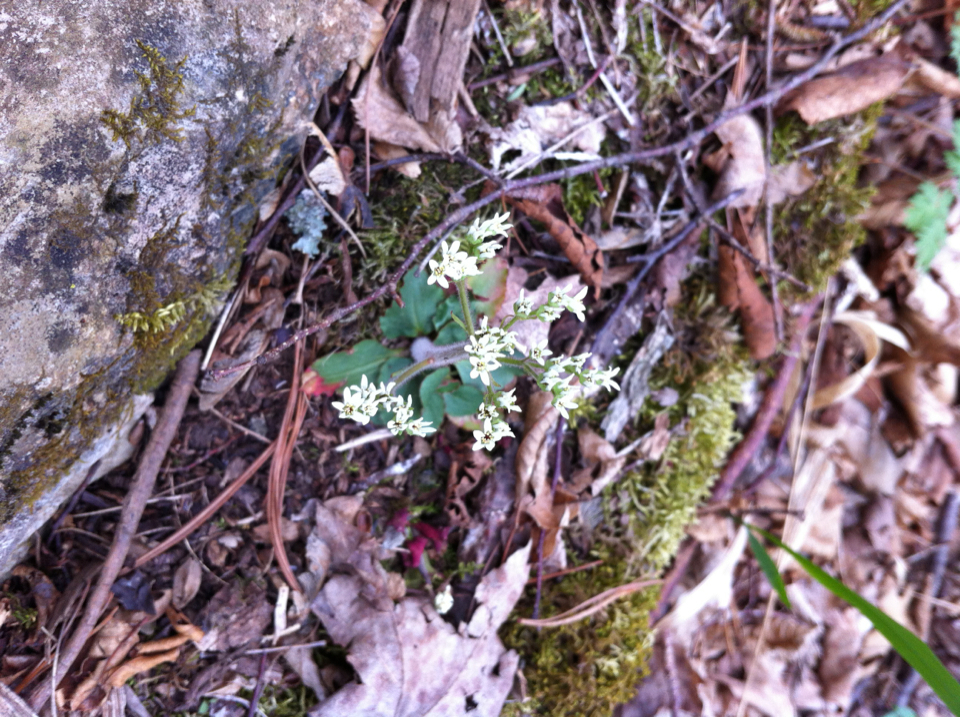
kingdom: Plantae
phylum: Tracheophyta
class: Magnoliopsida
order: Saxifragales
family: Saxifragaceae
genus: Micranthes
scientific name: Micranthes virginiensis
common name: Early saxifrage
